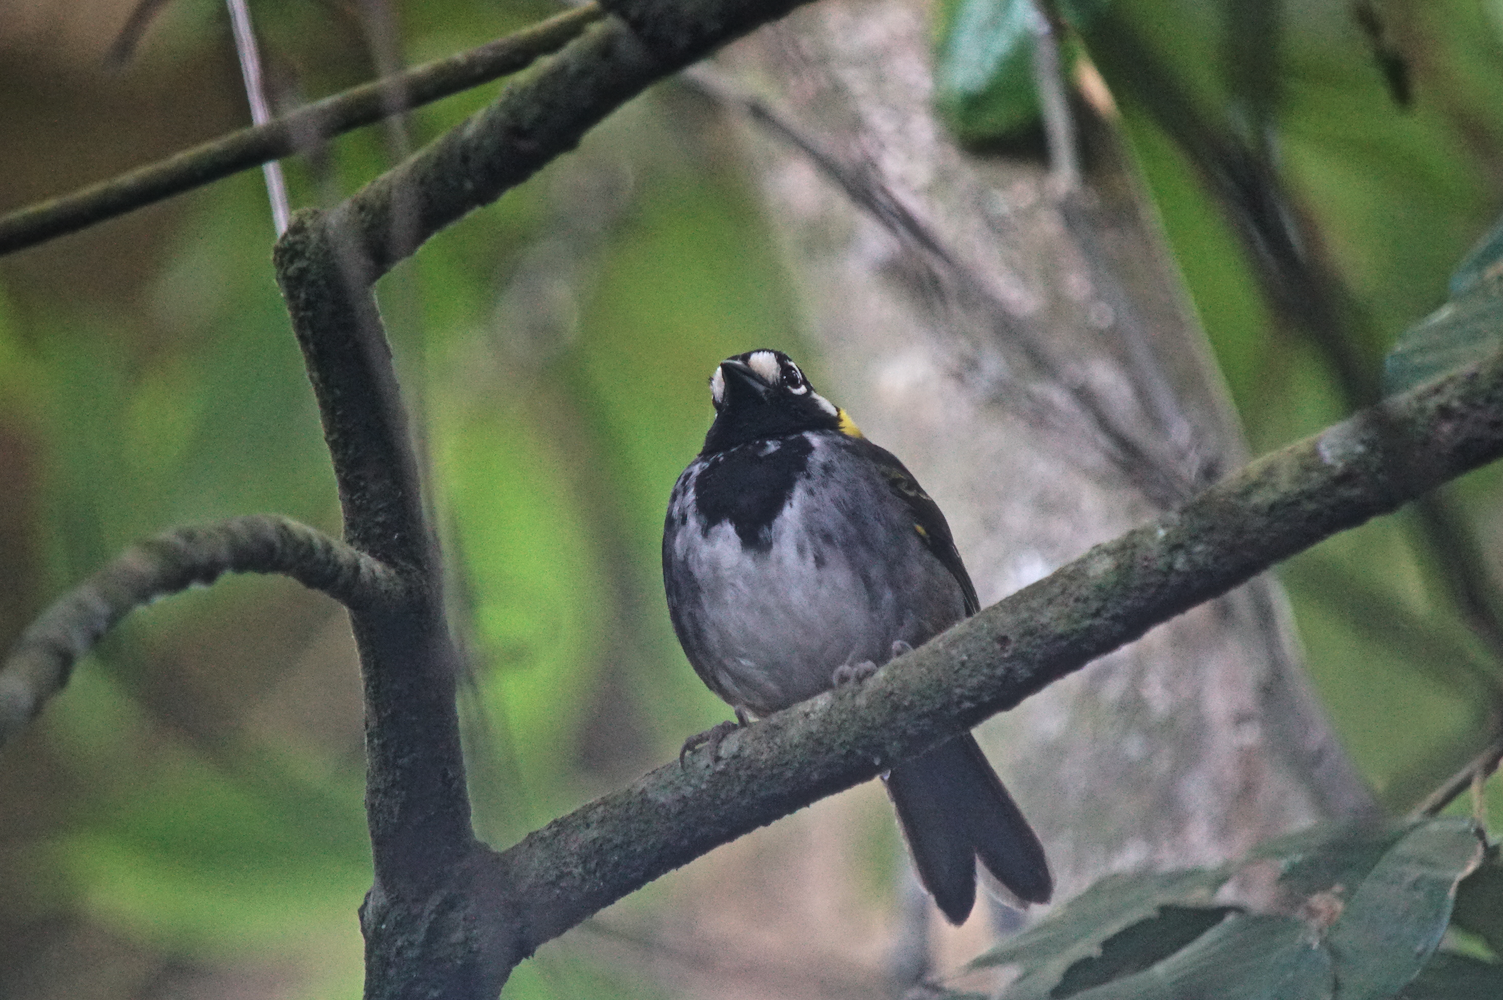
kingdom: Animalia
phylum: Chordata
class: Aves
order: Passeriformes
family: Passerellidae
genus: Melozone
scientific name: Melozone leucotis
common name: White-eared ground-sparrow
